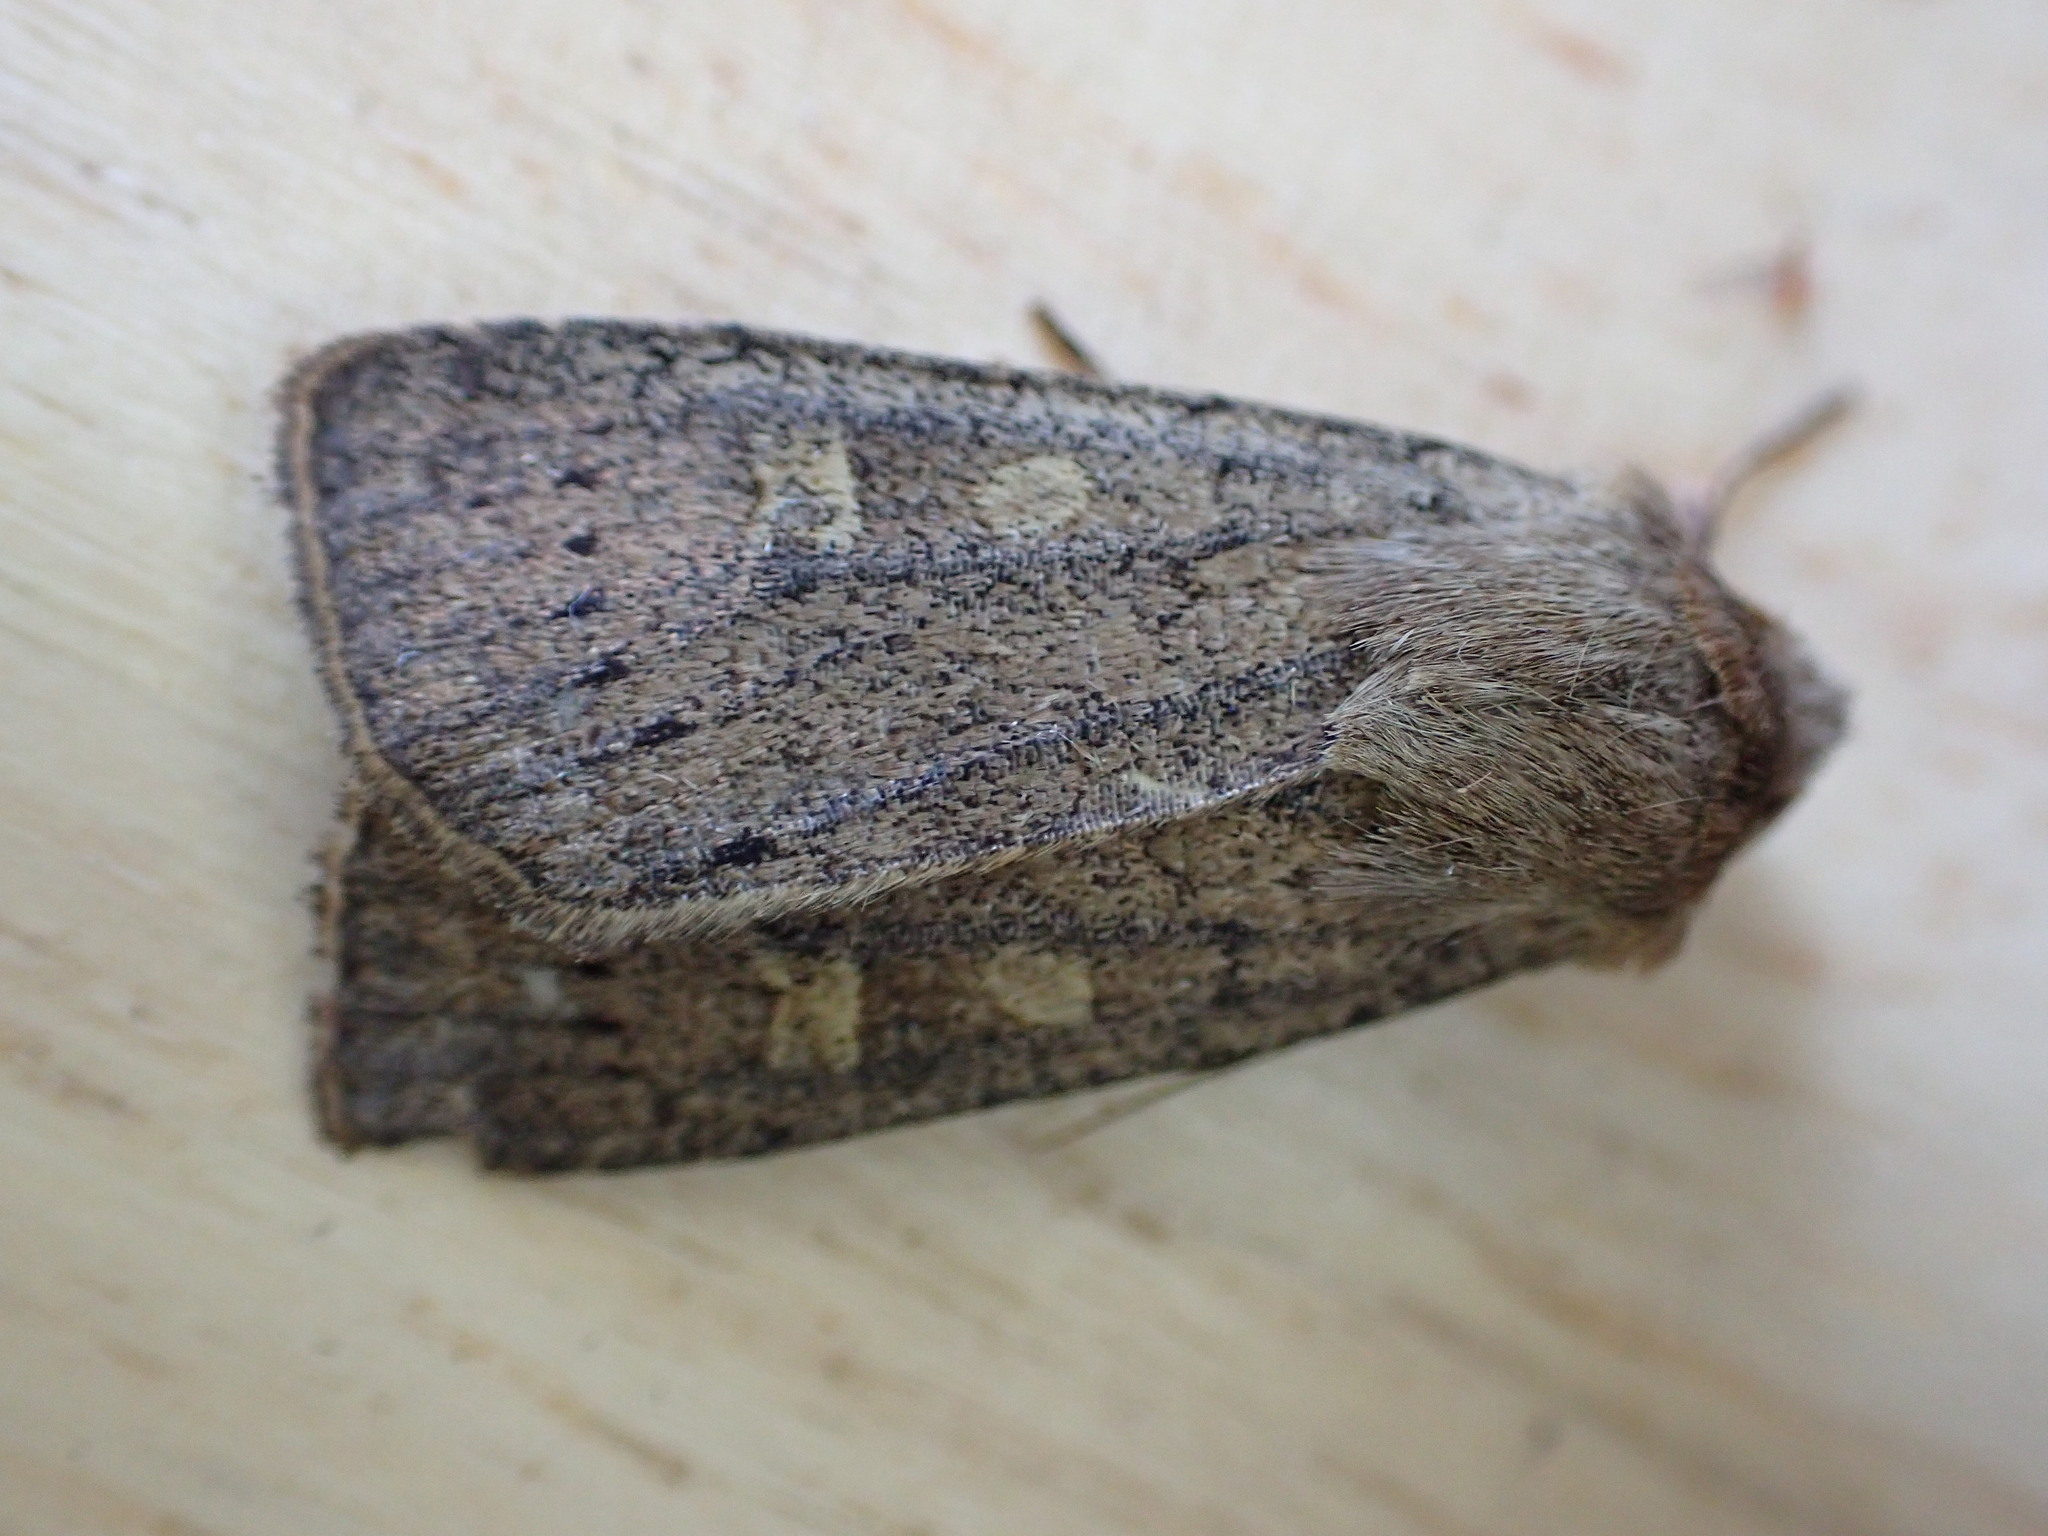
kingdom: Animalia
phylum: Arthropoda
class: Insecta
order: Lepidoptera
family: Noctuidae
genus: Xestia
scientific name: Xestia xanthographa
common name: Square-spot rustic
